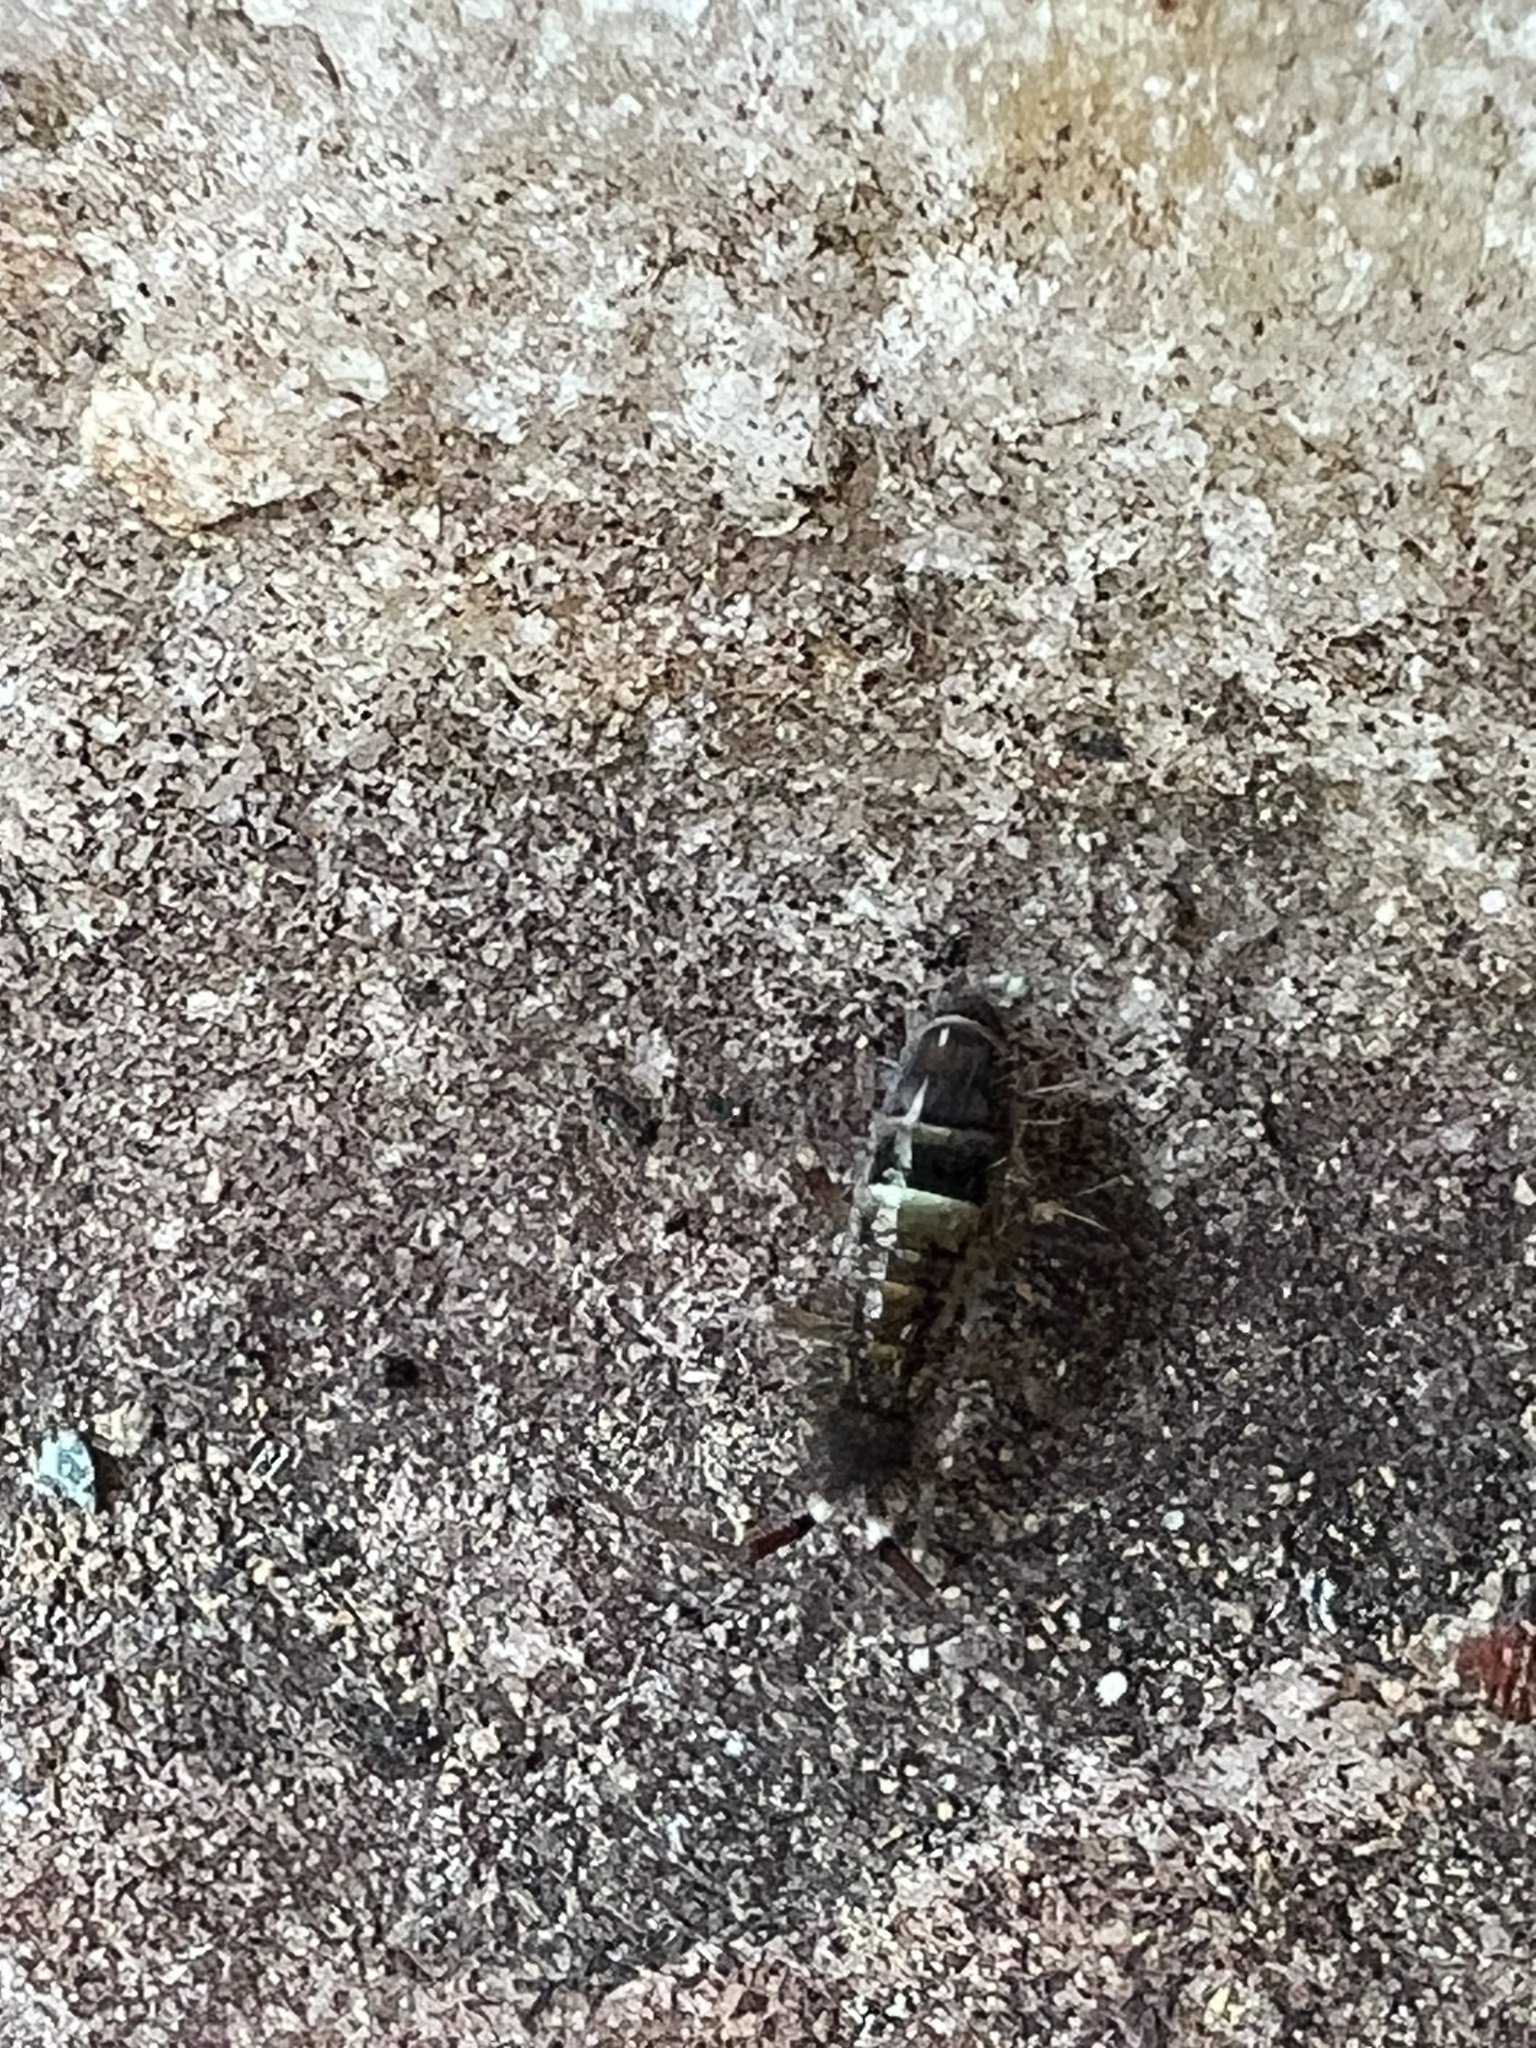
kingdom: Animalia
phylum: Arthropoda
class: Collembola
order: Entomobryomorpha
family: Orchesellidae
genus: Orchesella
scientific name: Orchesella cincta
